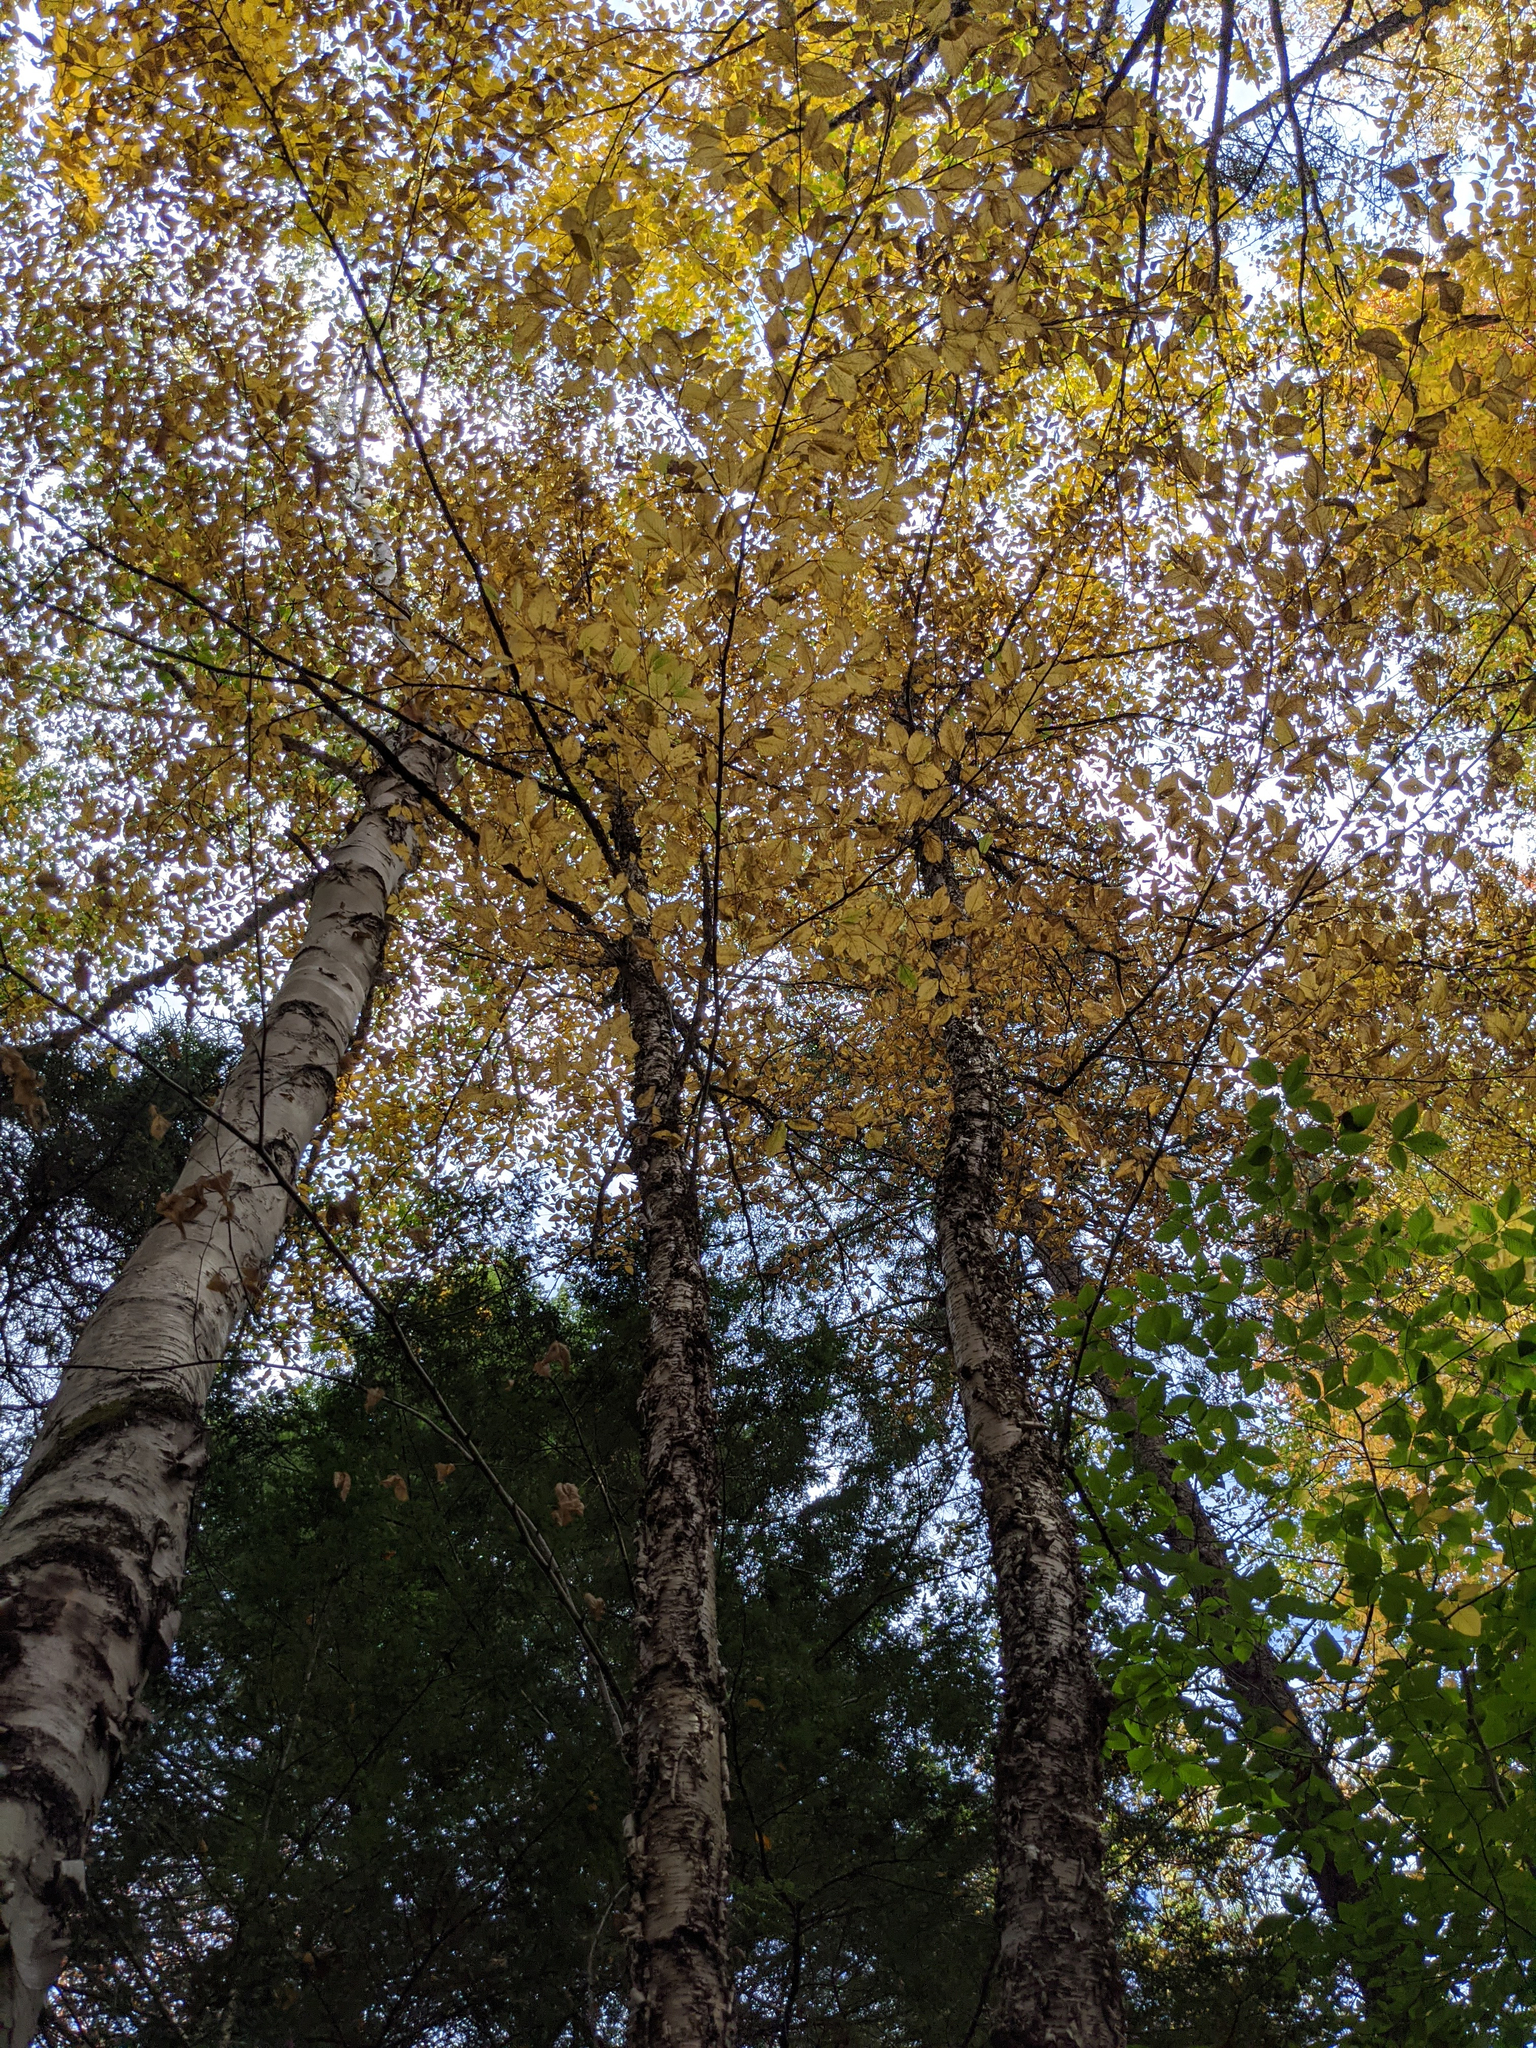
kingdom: Plantae
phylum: Tracheophyta
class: Magnoliopsida
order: Fagales
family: Betulaceae
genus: Betula
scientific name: Betula alleghaniensis
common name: Yellow birch
